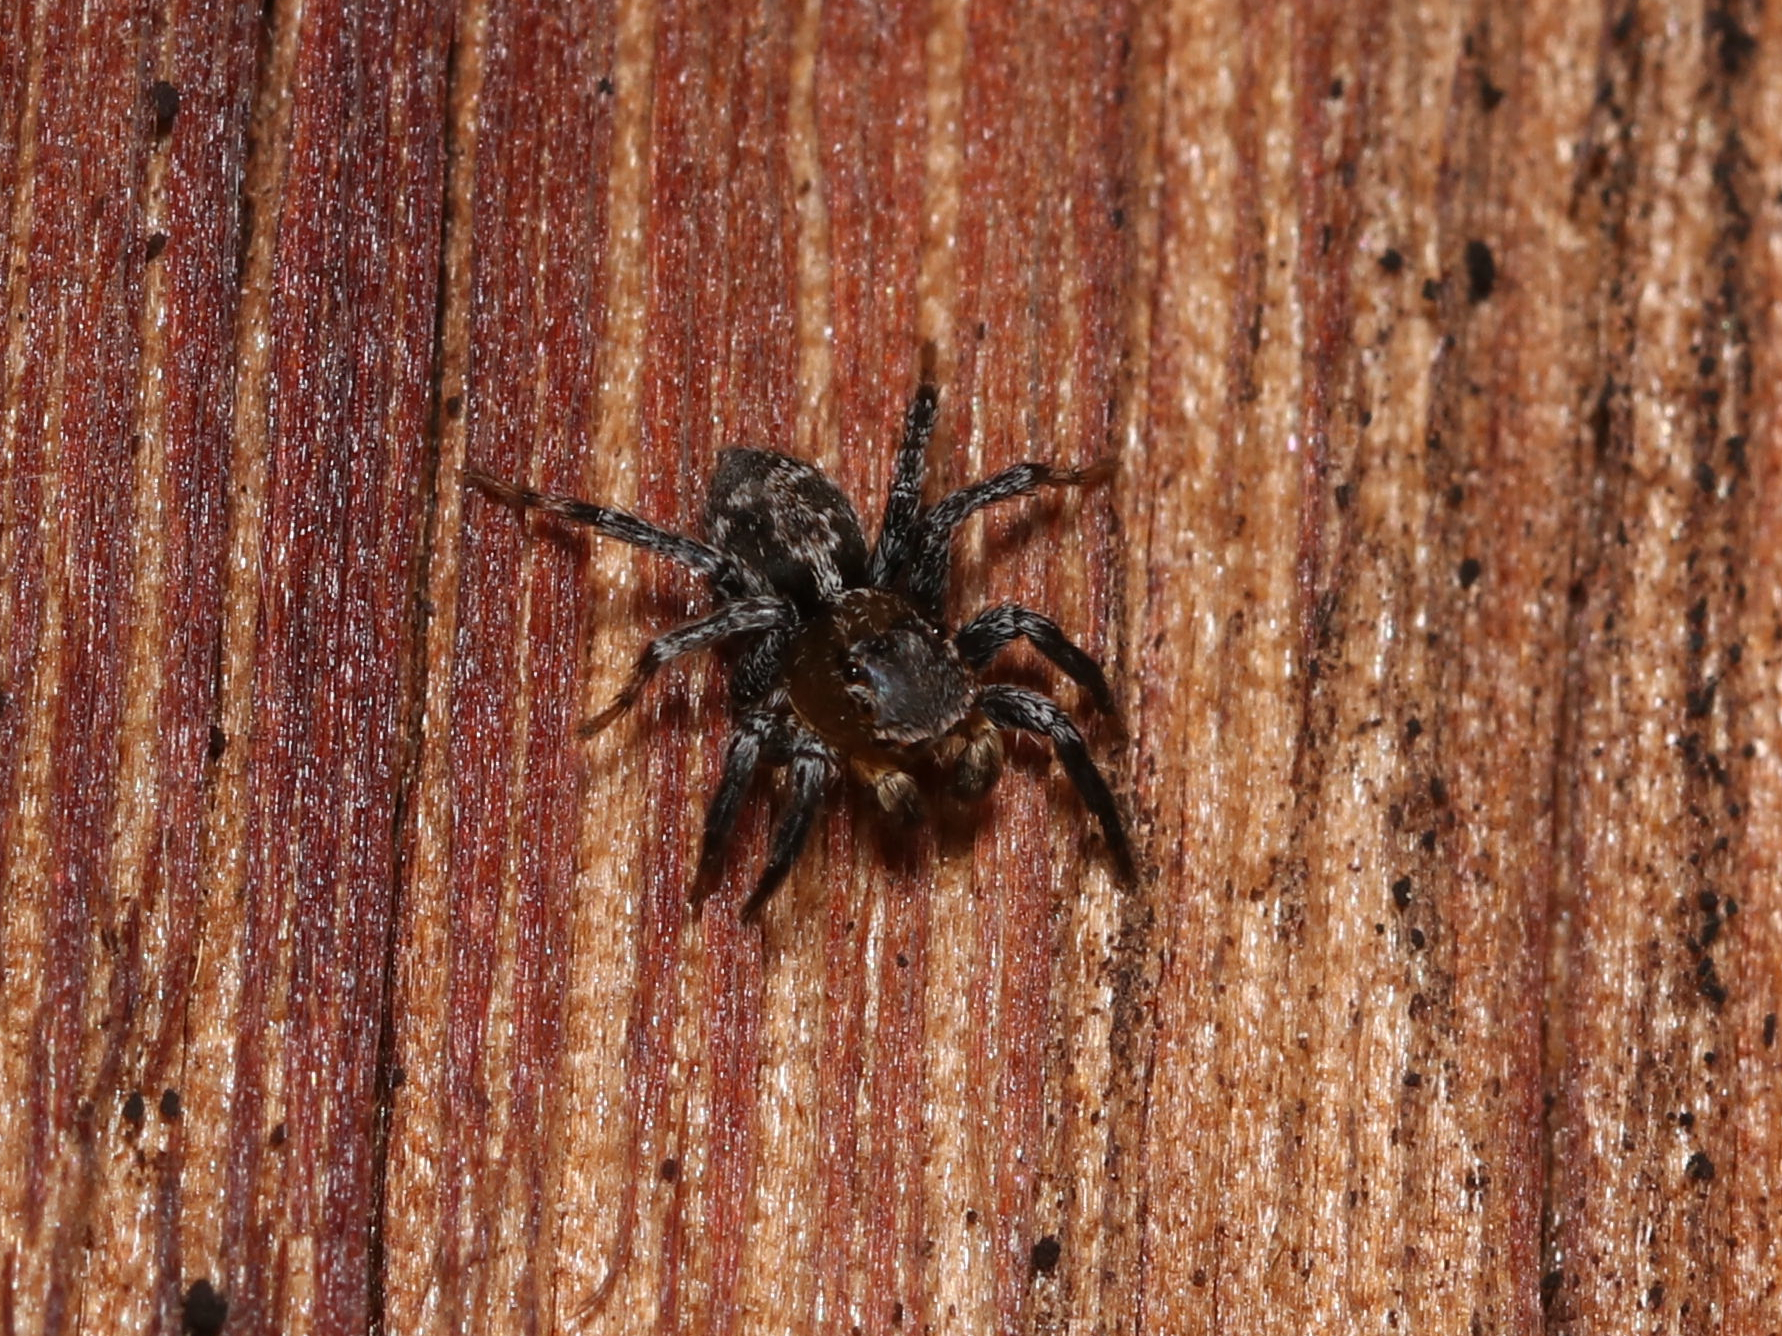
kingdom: Animalia
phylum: Arthropoda
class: Arachnida
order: Araneae
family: Salticidae
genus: Naphrys
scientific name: Naphrys pulex
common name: Flea jumping spider
